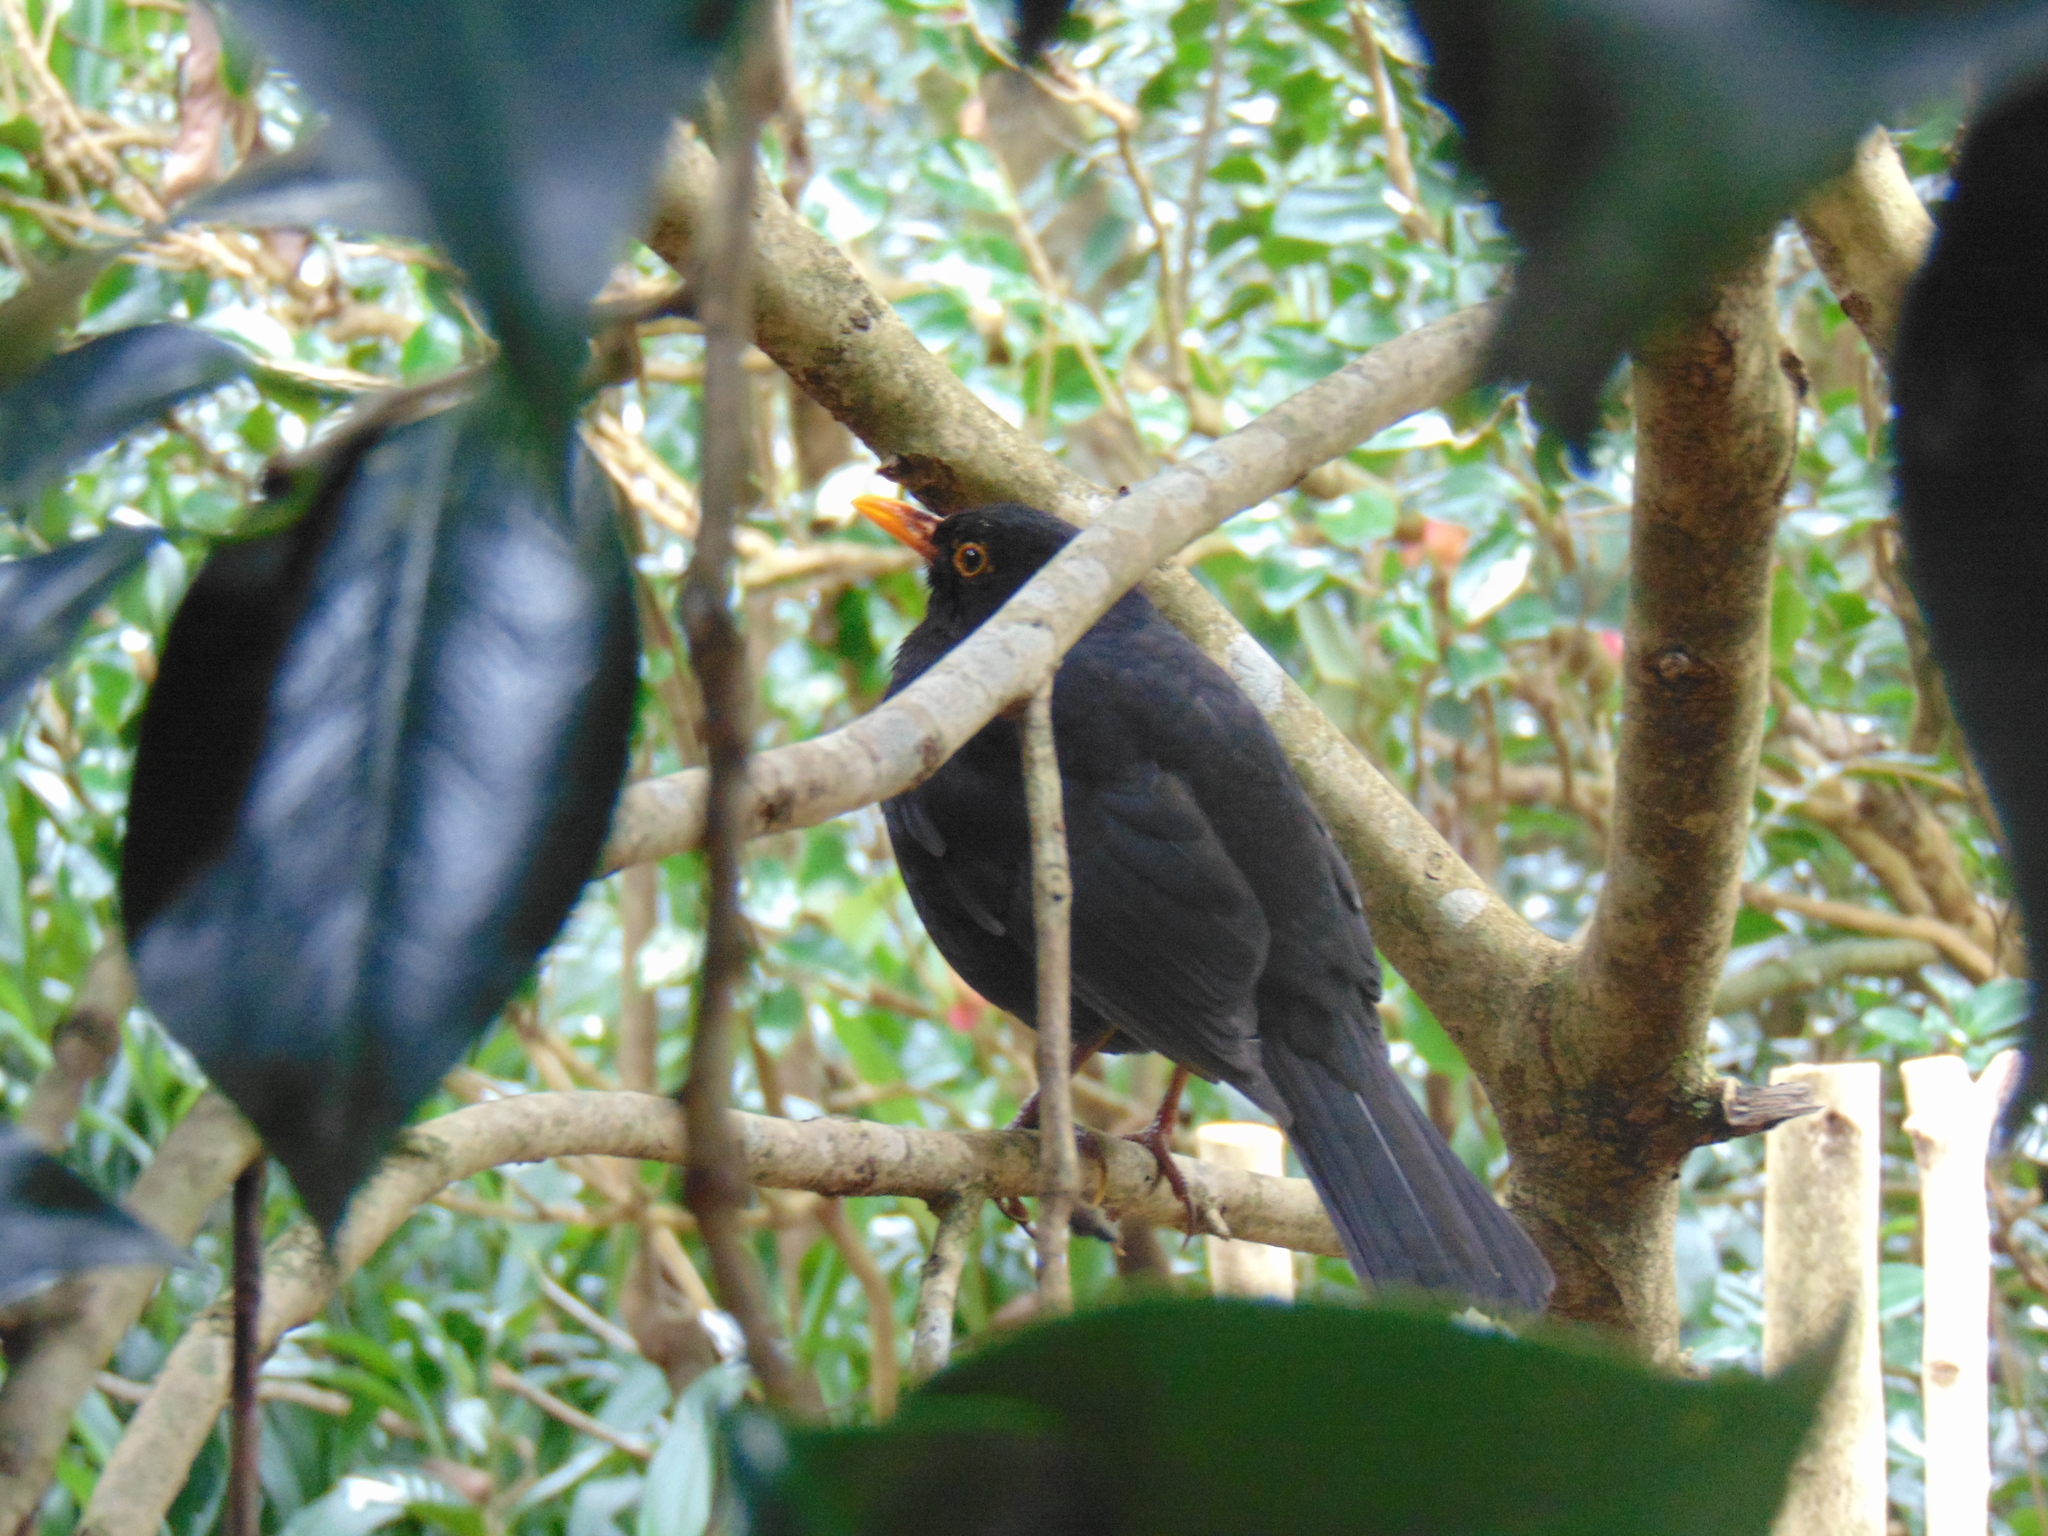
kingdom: Animalia
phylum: Chordata
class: Aves
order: Passeriformes
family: Turdidae
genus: Turdus
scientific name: Turdus merula
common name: Common blackbird
